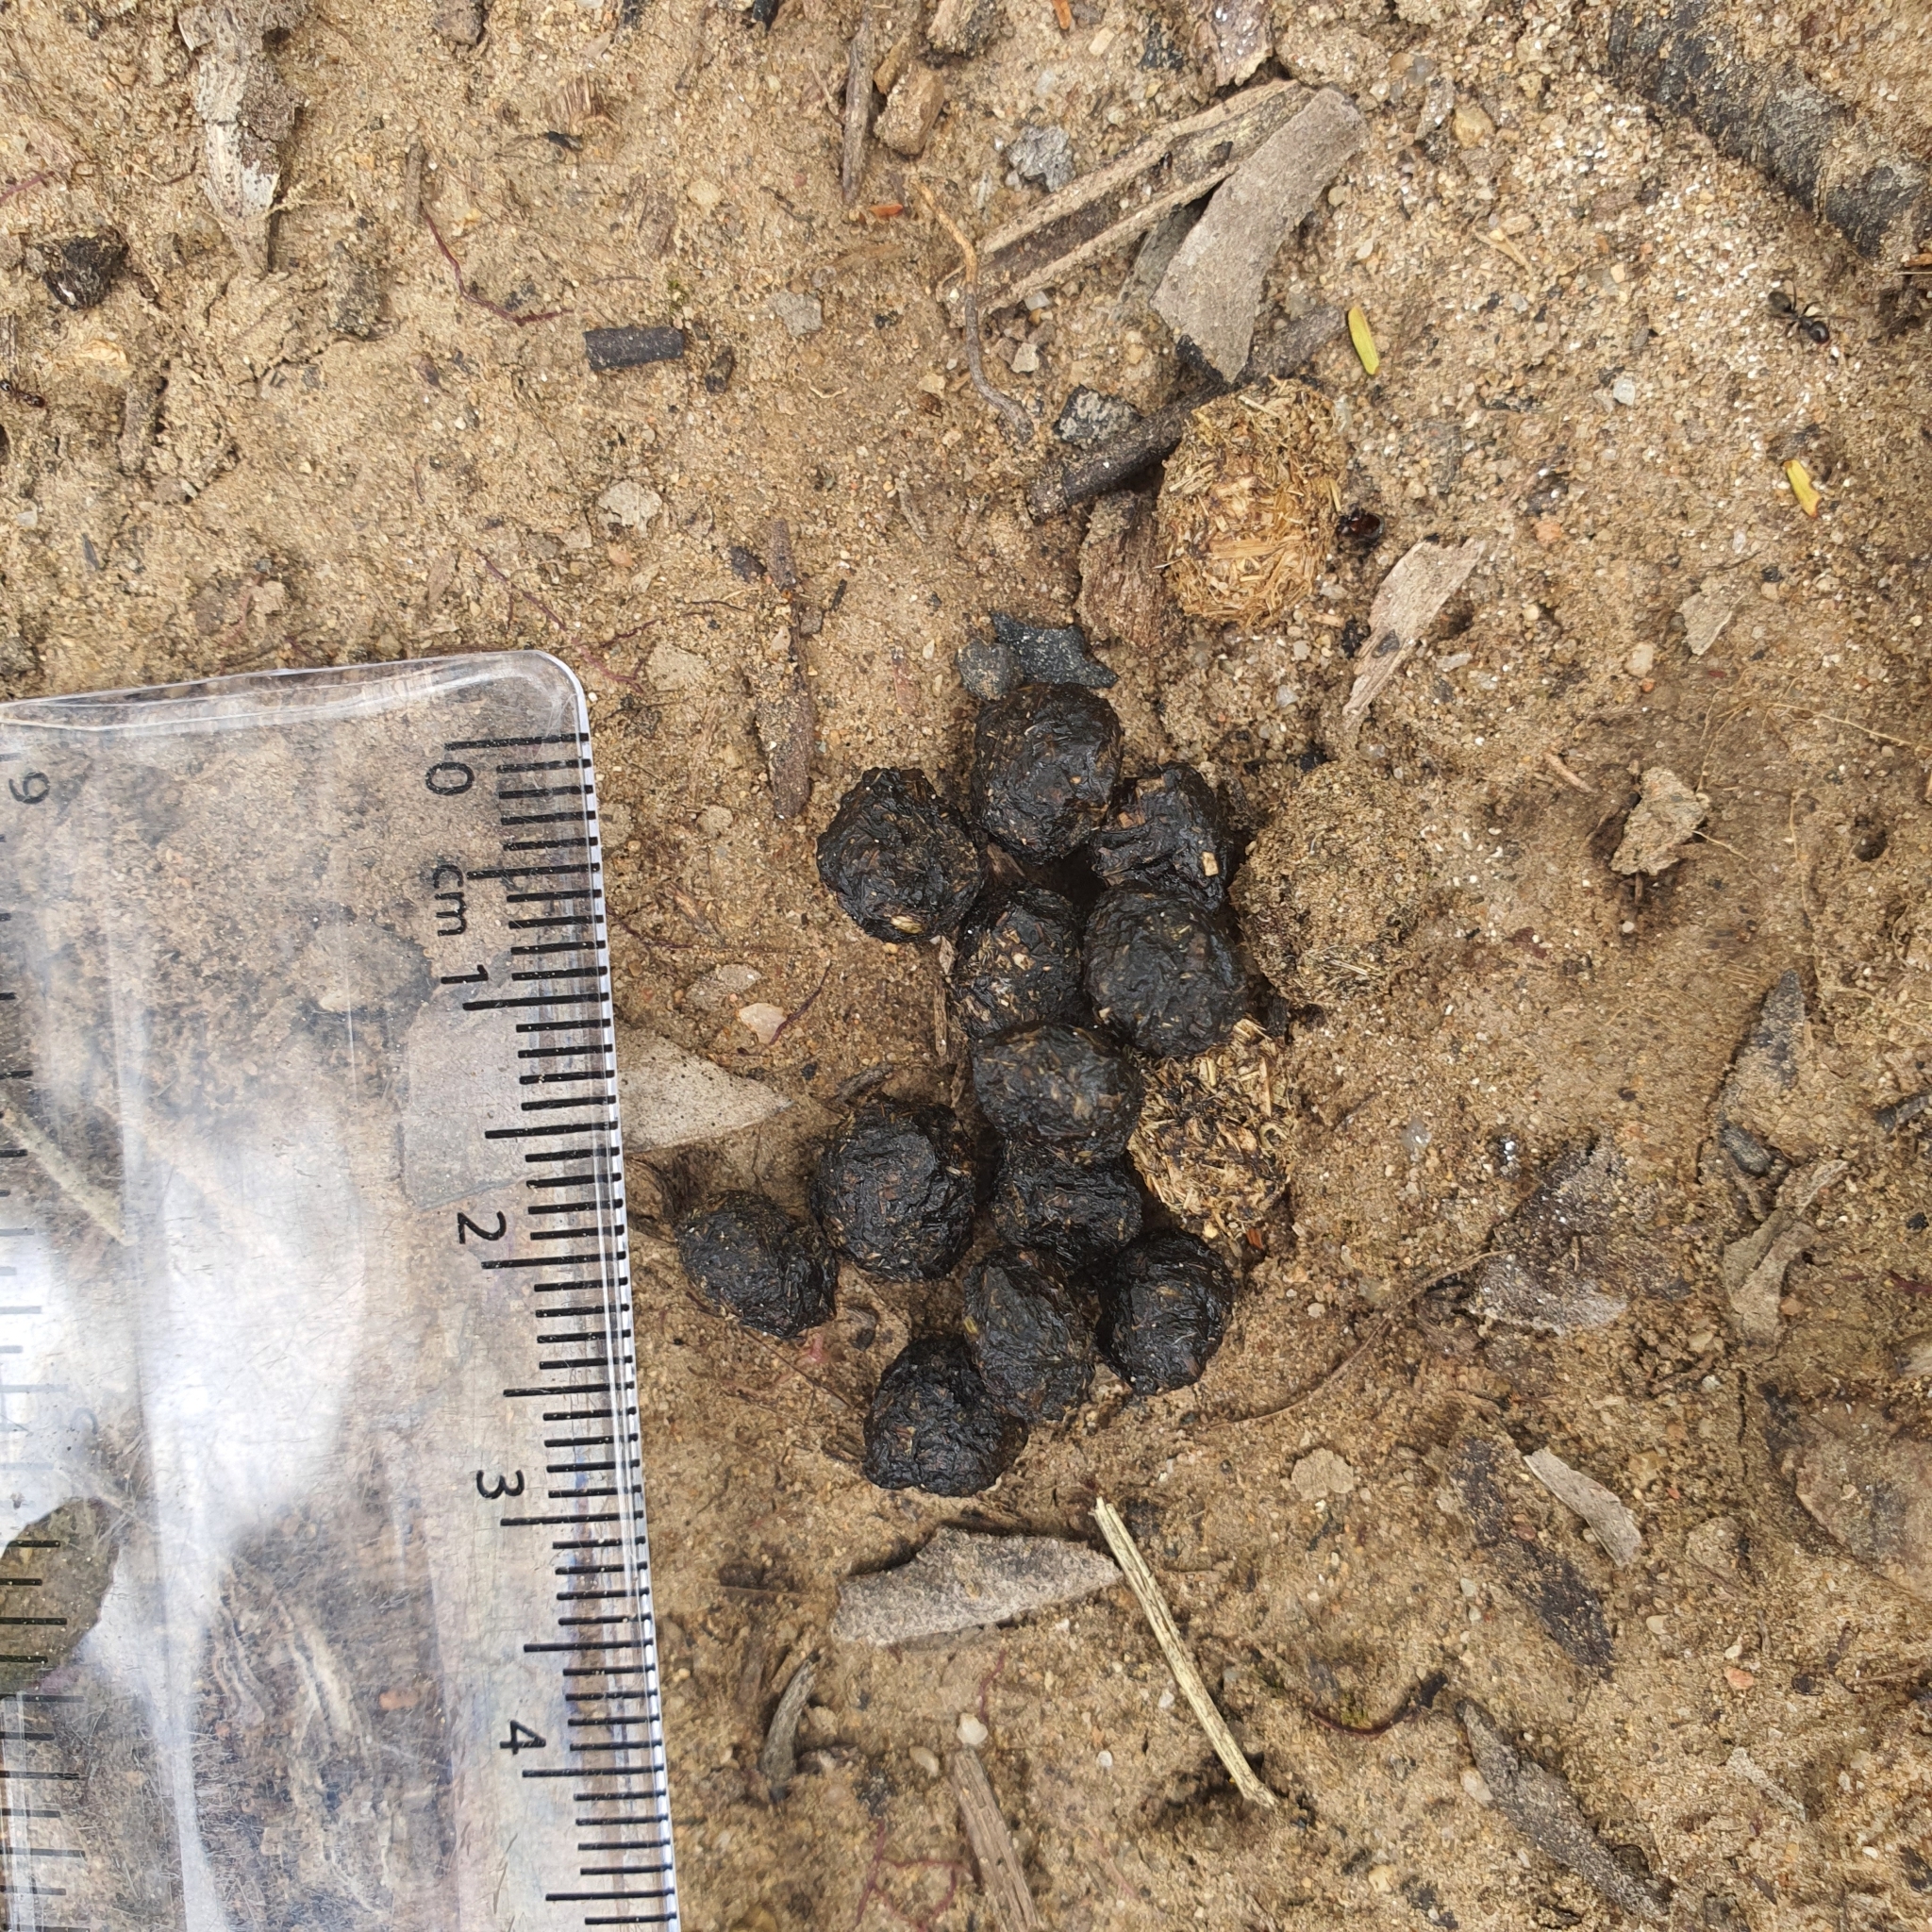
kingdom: Animalia
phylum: Chordata
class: Mammalia
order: Lagomorpha
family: Leporidae
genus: Oryctolagus
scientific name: Oryctolagus cuniculus
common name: European rabbit
